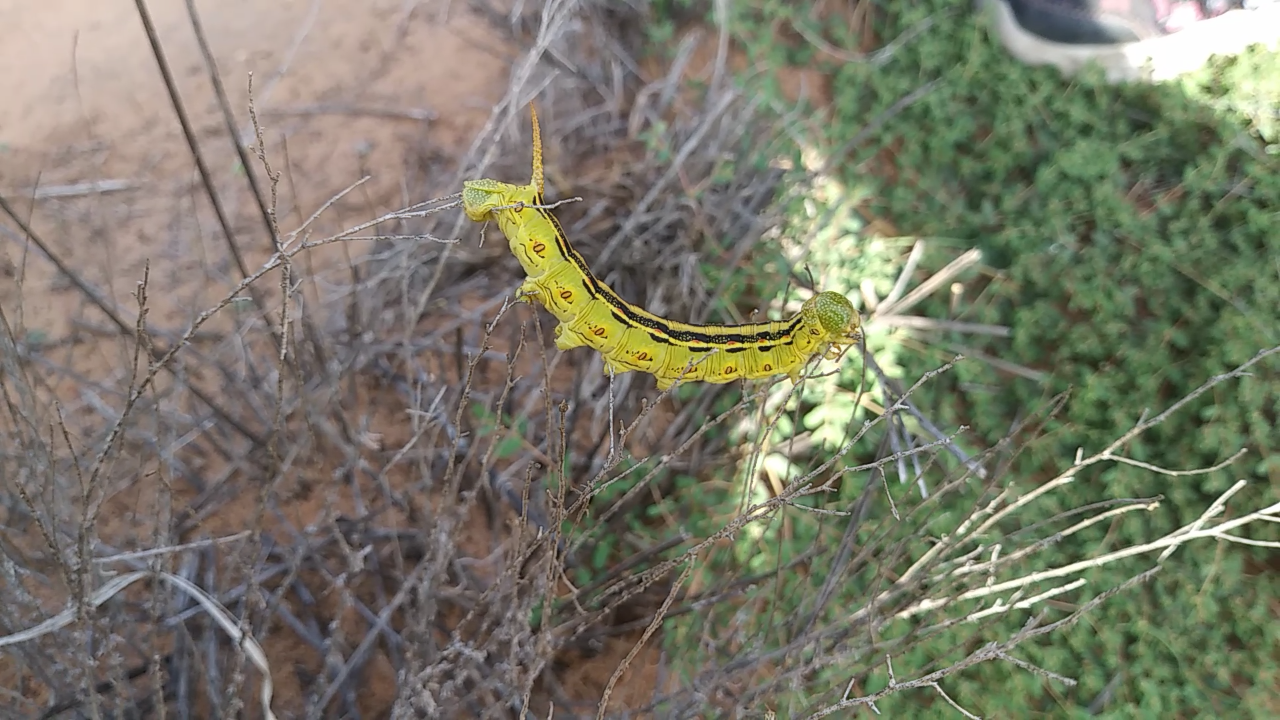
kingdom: Animalia
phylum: Arthropoda
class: Insecta
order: Lepidoptera
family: Sphingidae
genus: Hyles
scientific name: Hyles lineata
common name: White-lined sphinx
